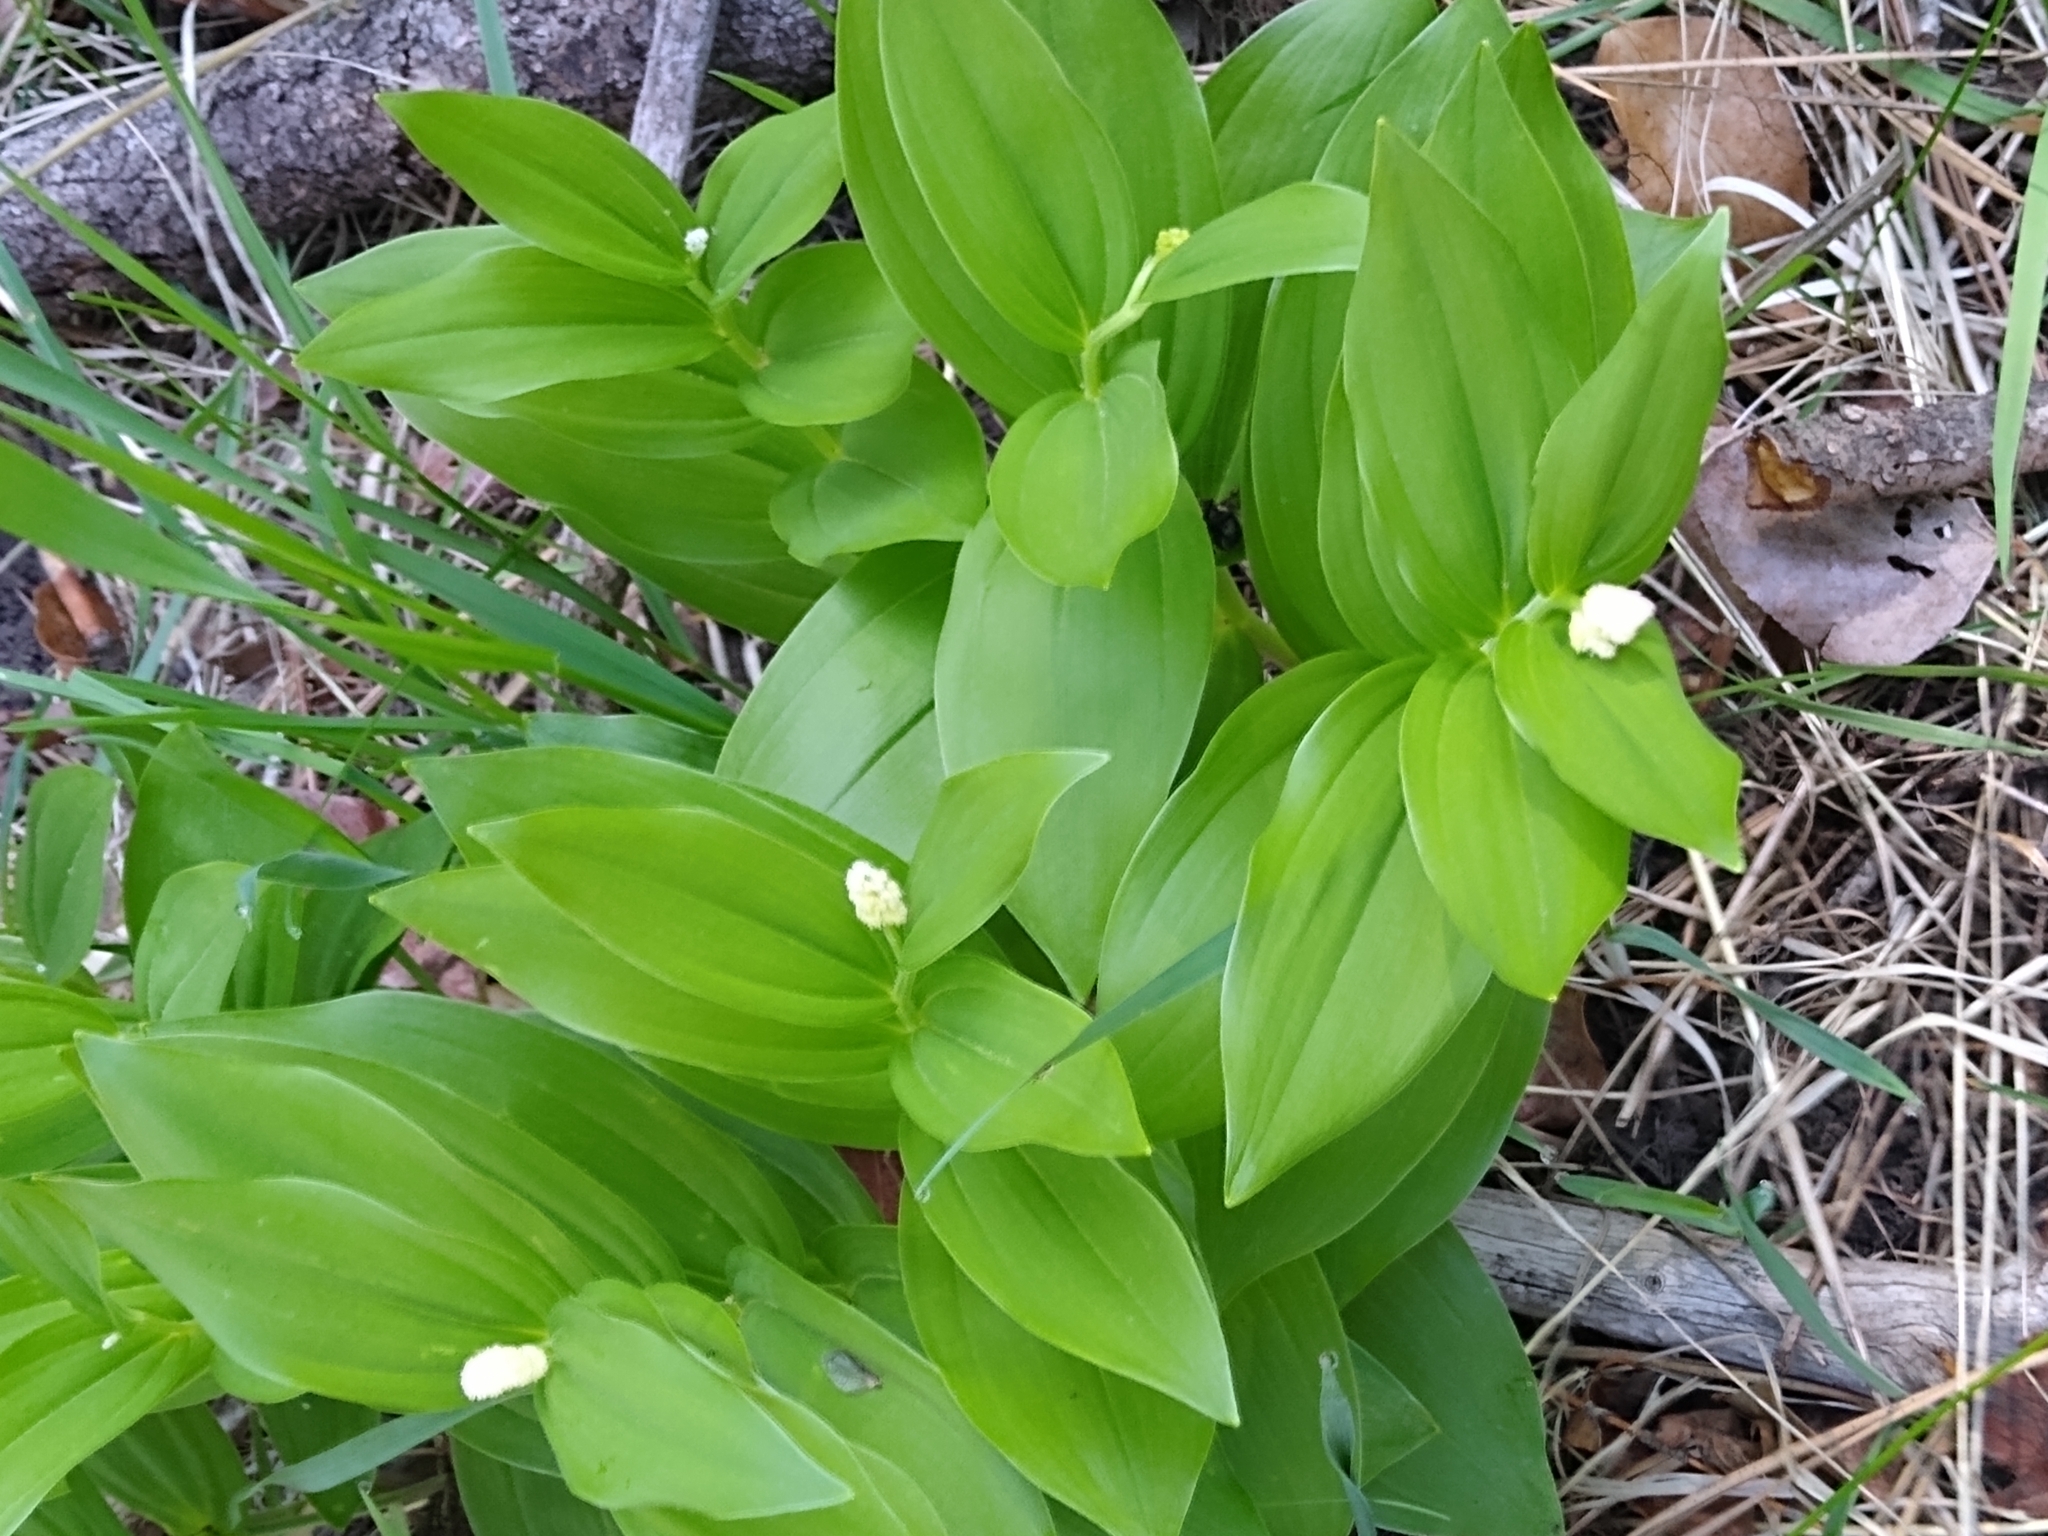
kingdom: Plantae
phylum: Tracheophyta
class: Liliopsida
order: Asparagales
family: Asparagaceae
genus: Maianthemum
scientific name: Maianthemum racemosum
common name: False spikenard
